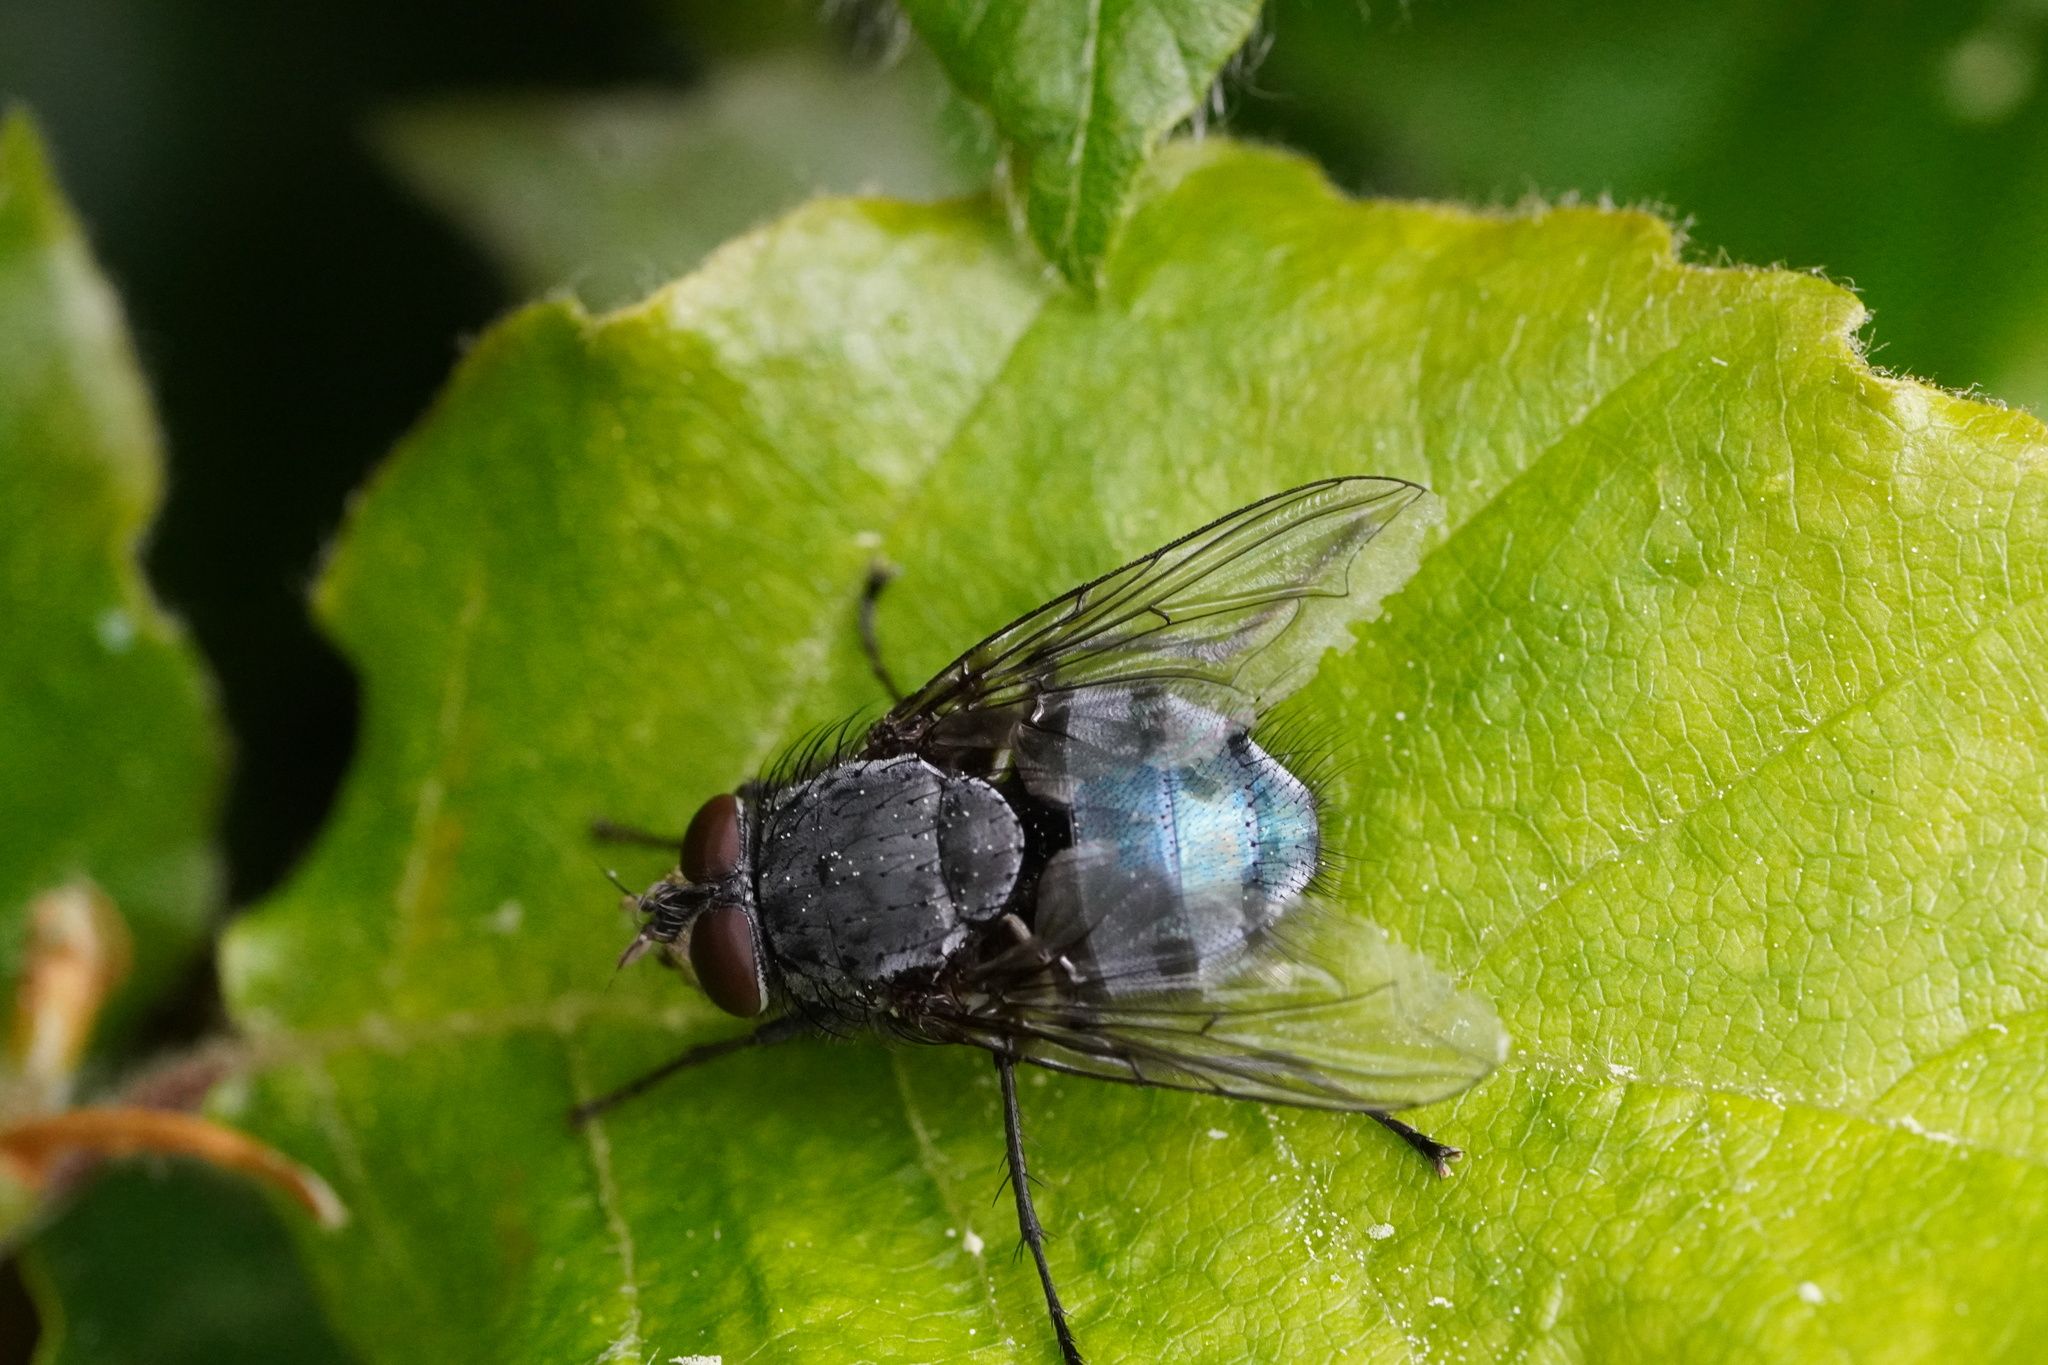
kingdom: Animalia
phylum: Arthropoda
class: Insecta
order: Diptera
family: Calliphoridae
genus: Calliphora
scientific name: Calliphora vicina
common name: Common blow flie
